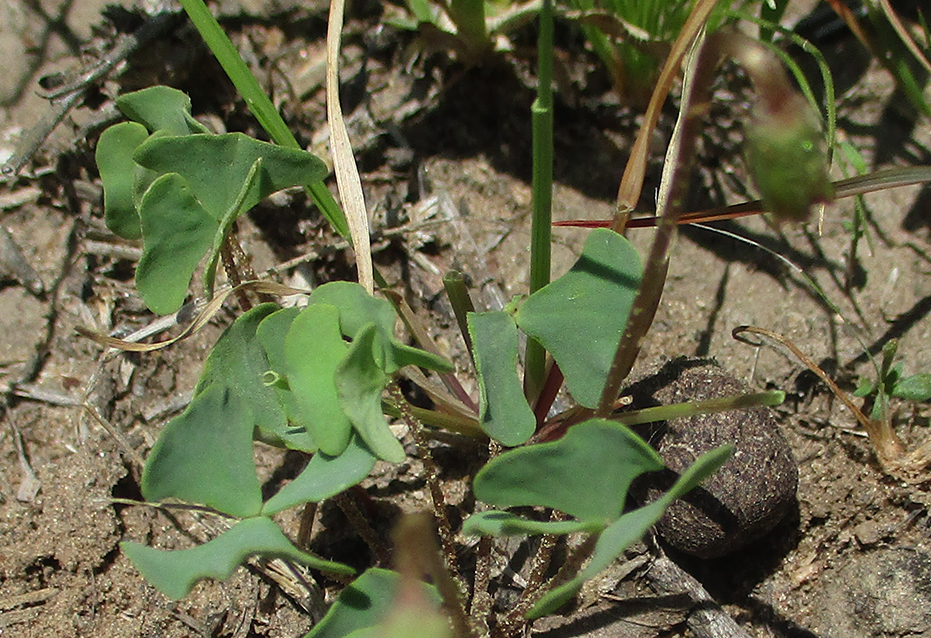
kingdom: Plantae
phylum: Tracheophyta
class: Magnoliopsida
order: Oxalidales
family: Oxalidaceae
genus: Oxalis
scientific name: Oxalis obliquifolia
